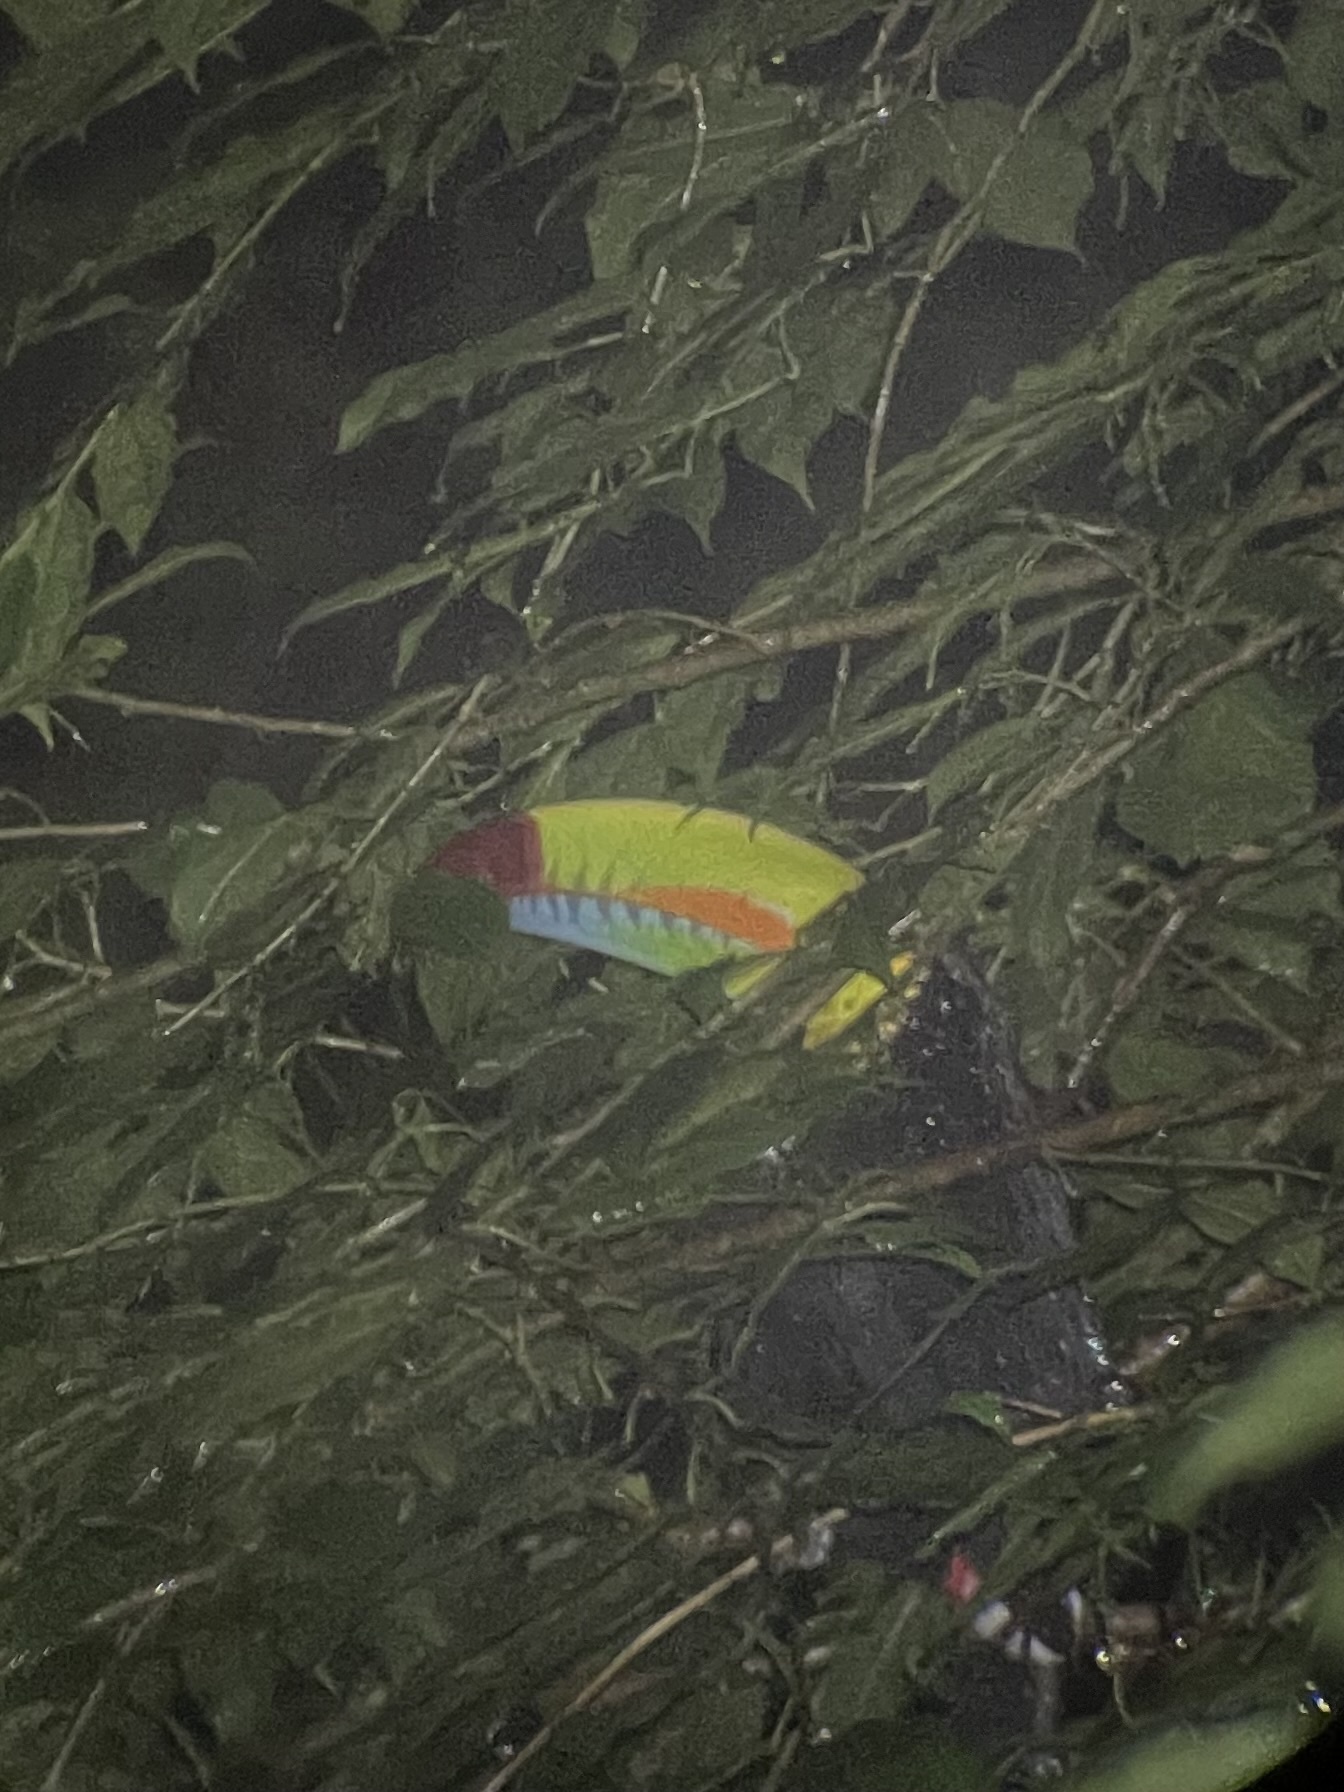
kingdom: Animalia
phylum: Chordata
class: Aves
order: Piciformes
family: Ramphastidae
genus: Ramphastos
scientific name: Ramphastos sulfuratus
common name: Keel-billed toucan
